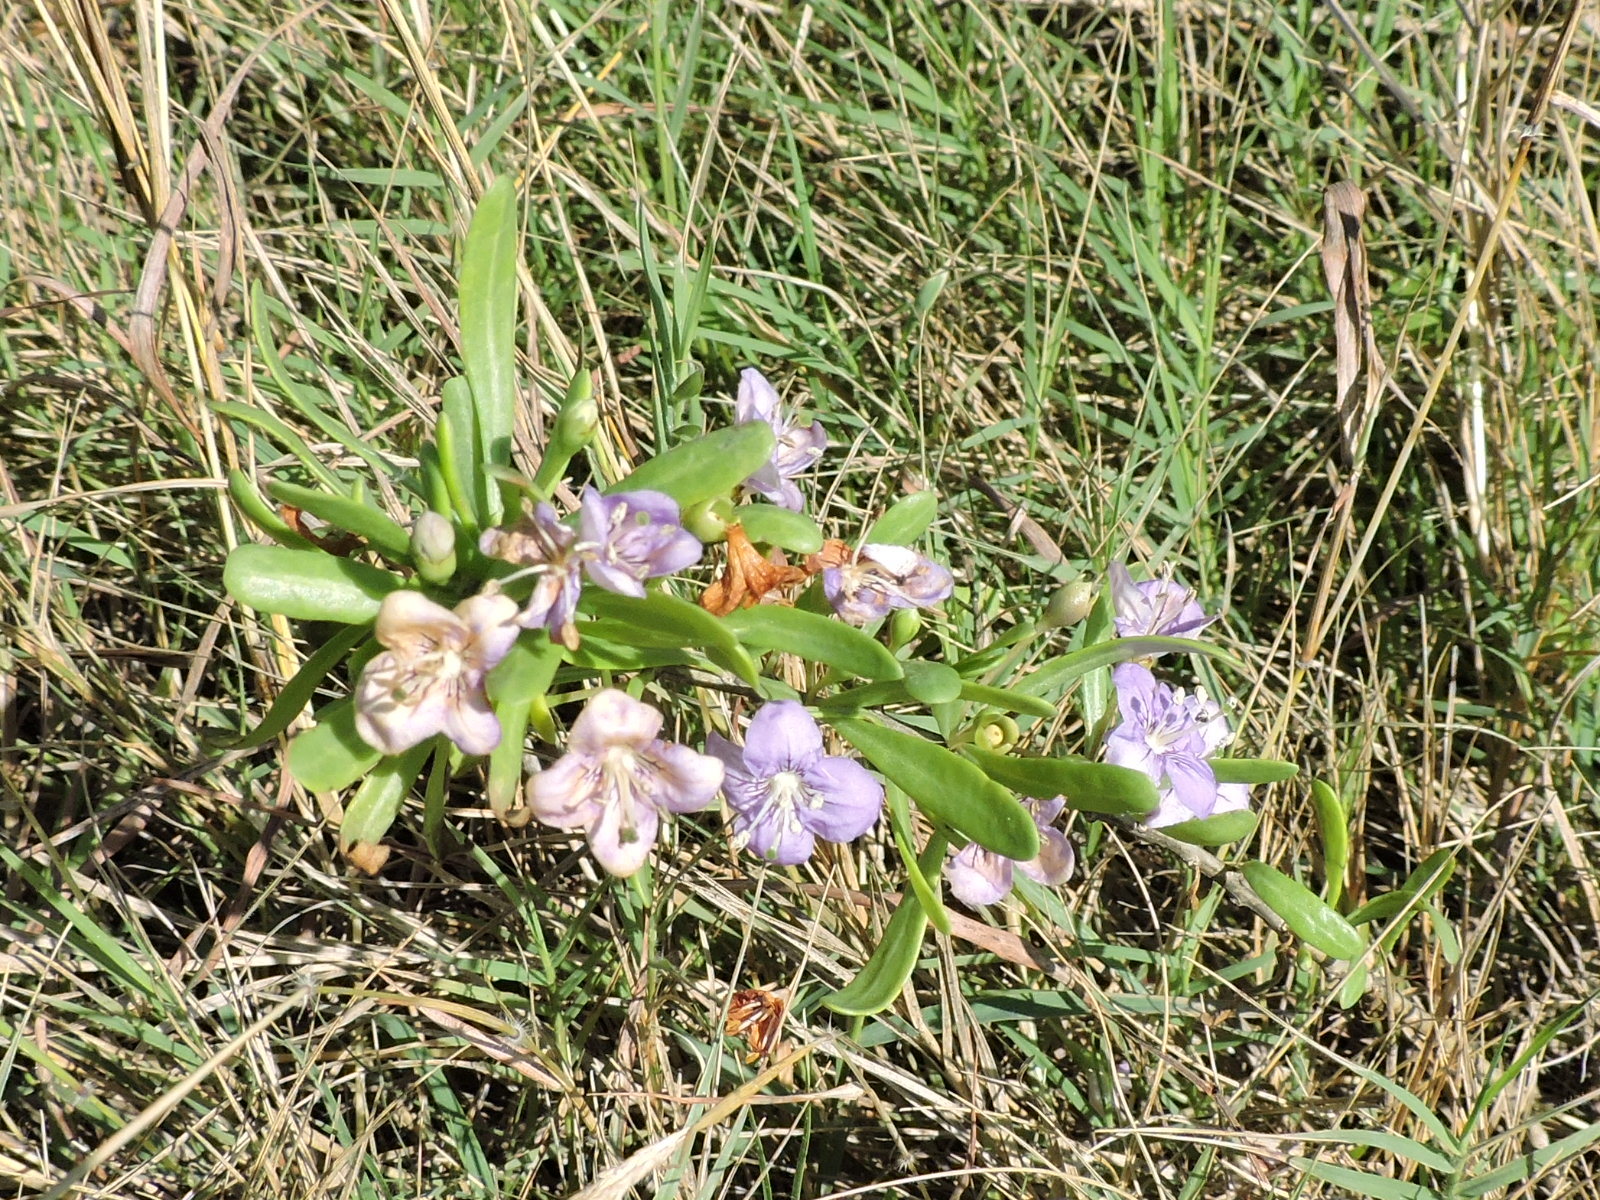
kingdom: Plantae
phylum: Tracheophyta
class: Magnoliopsida
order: Solanales
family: Solanaceae
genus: Lycium
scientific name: Lycium carolinianum
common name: Christmasberry
